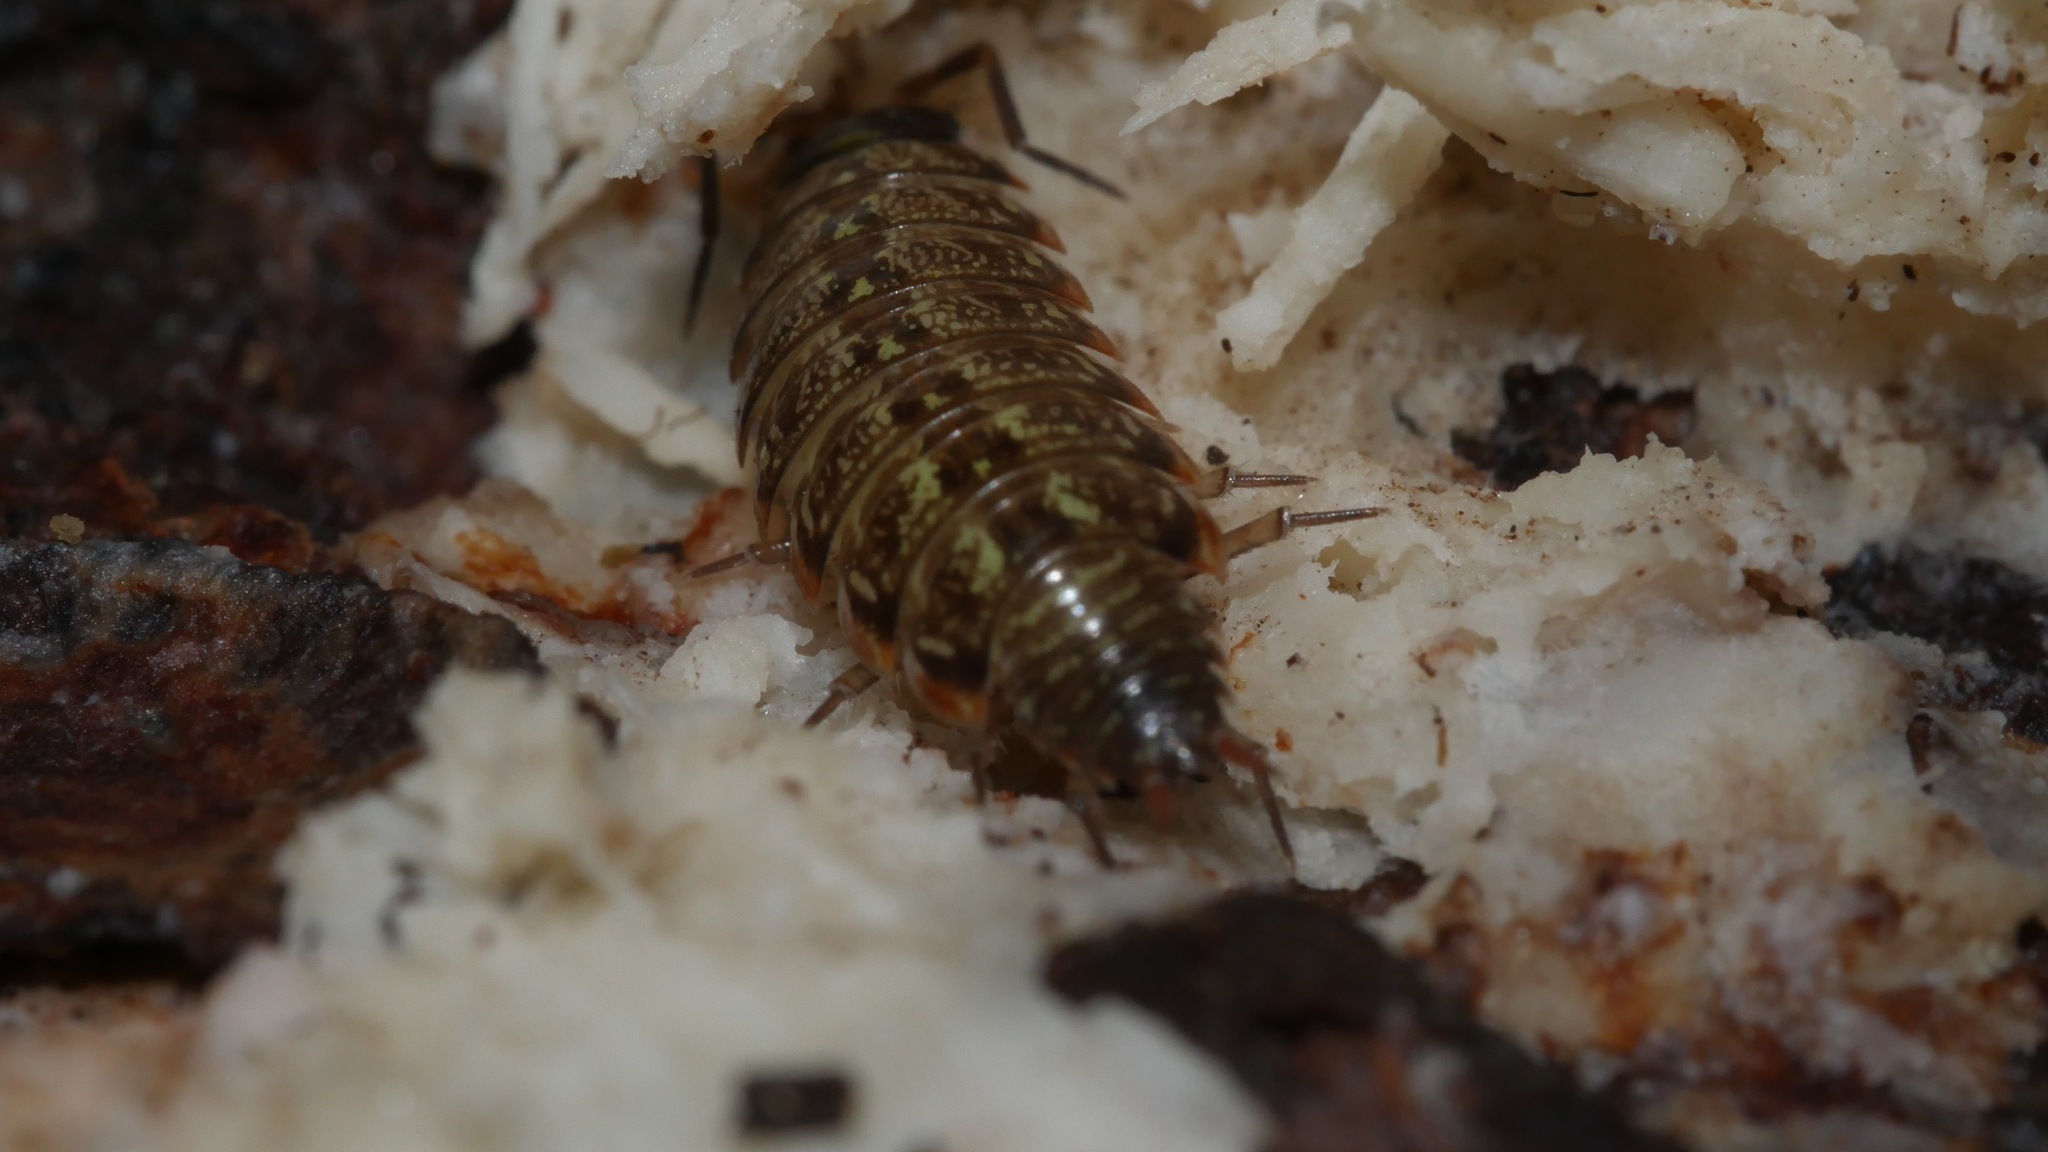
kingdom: Animalia
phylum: Arthropoda
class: Malacostraca
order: Isopoda
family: Philosciidae
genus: Philoscia
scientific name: Philoscia muscorum
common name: Common striped woodlouse
